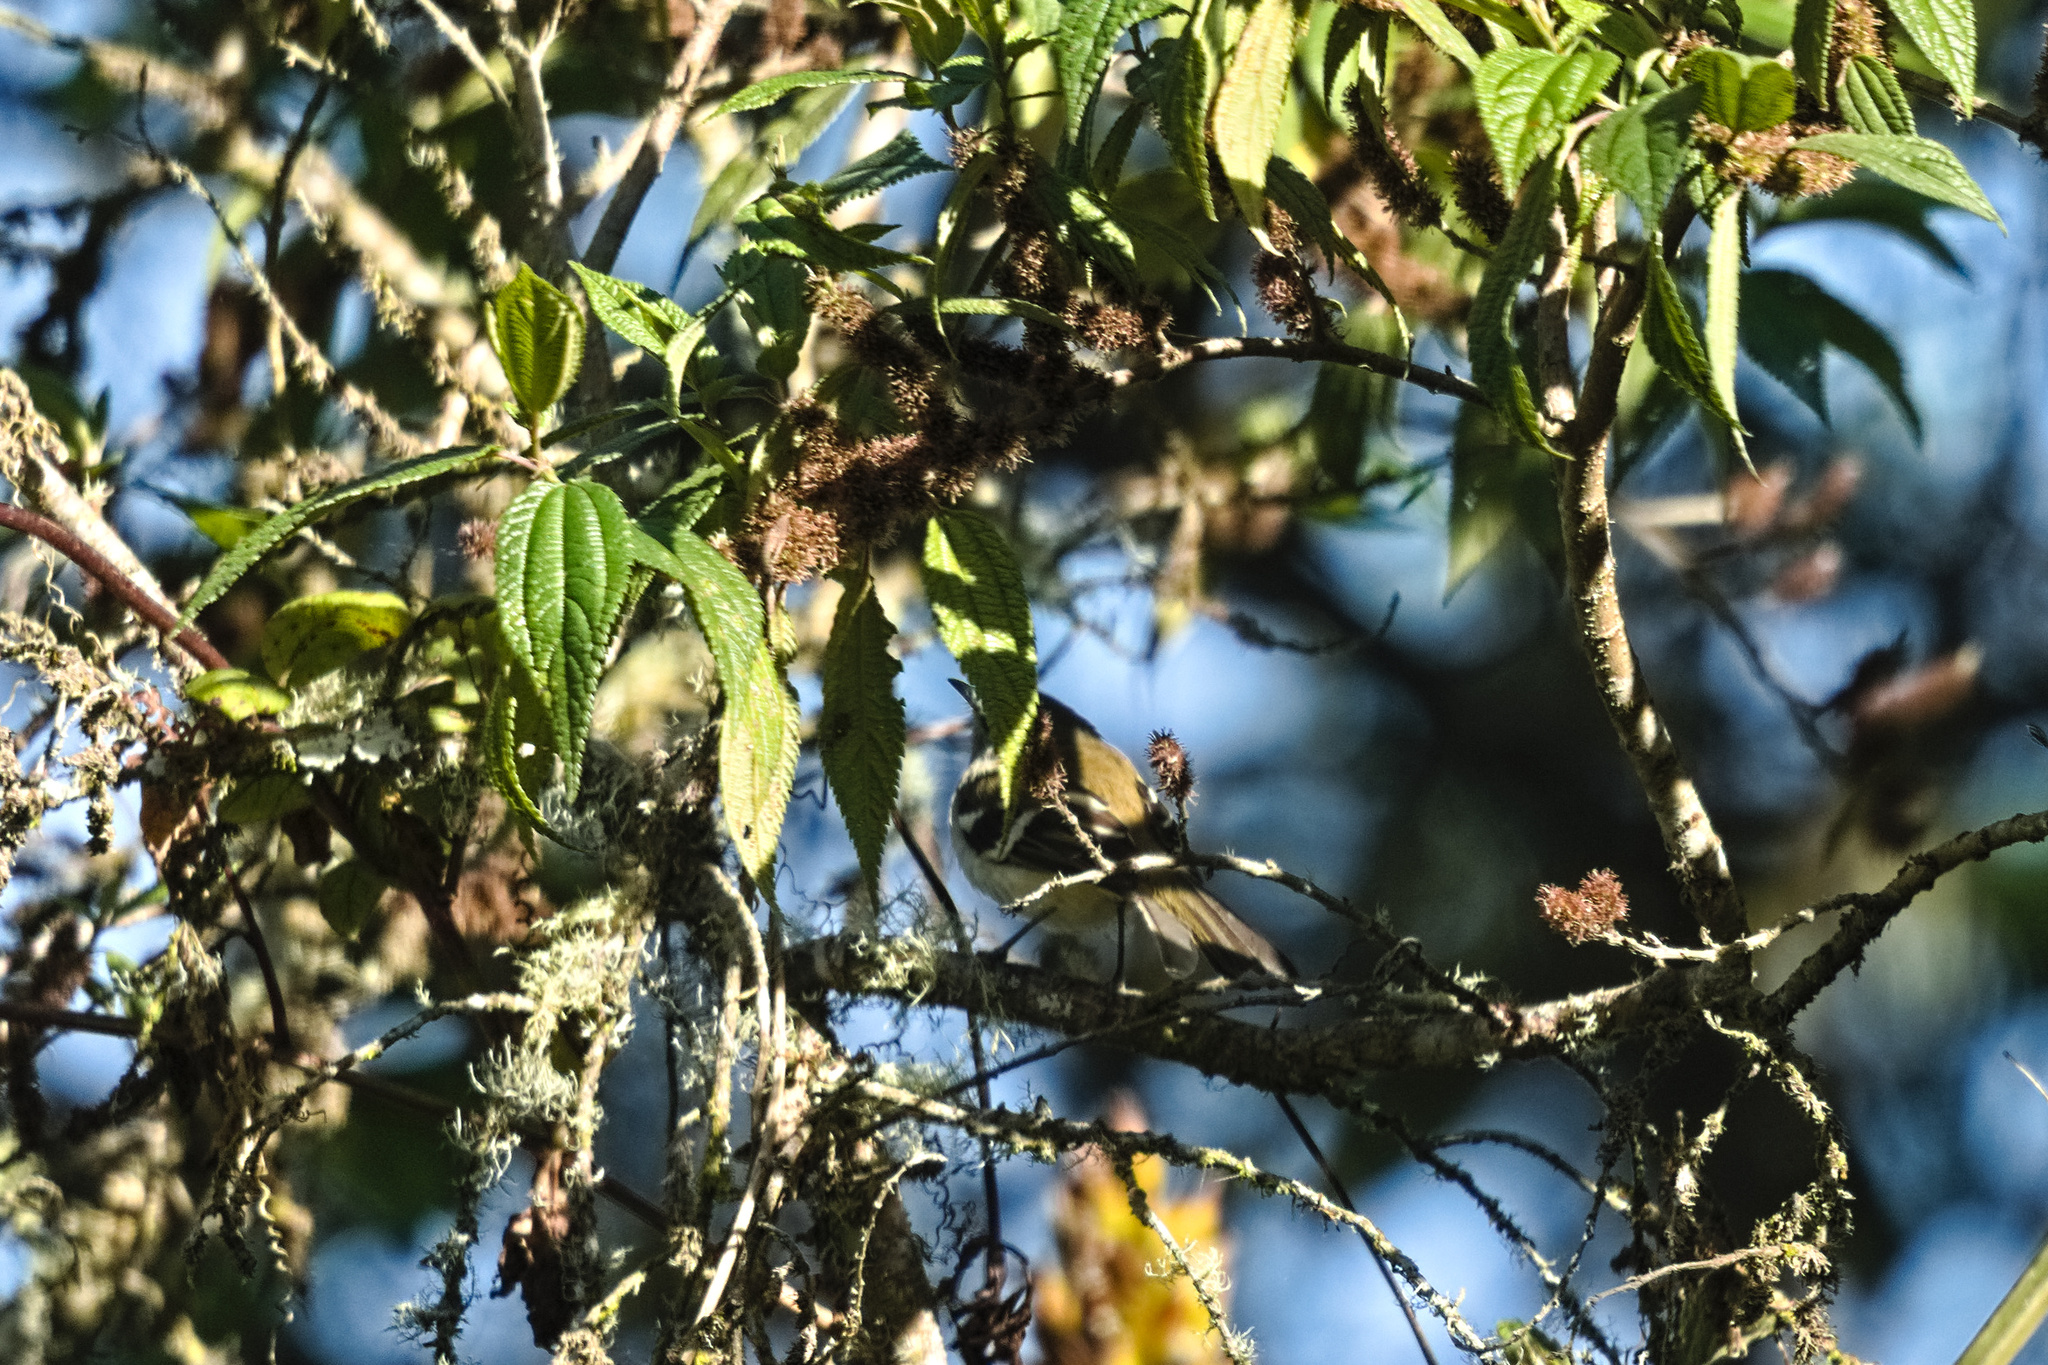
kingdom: Animalia
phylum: Chordata
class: Aves
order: Passeriformes
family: Tyrannidae
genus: Mecocerculus
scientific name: Mecocerculus stictopterus
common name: White-banded tyrannulet
